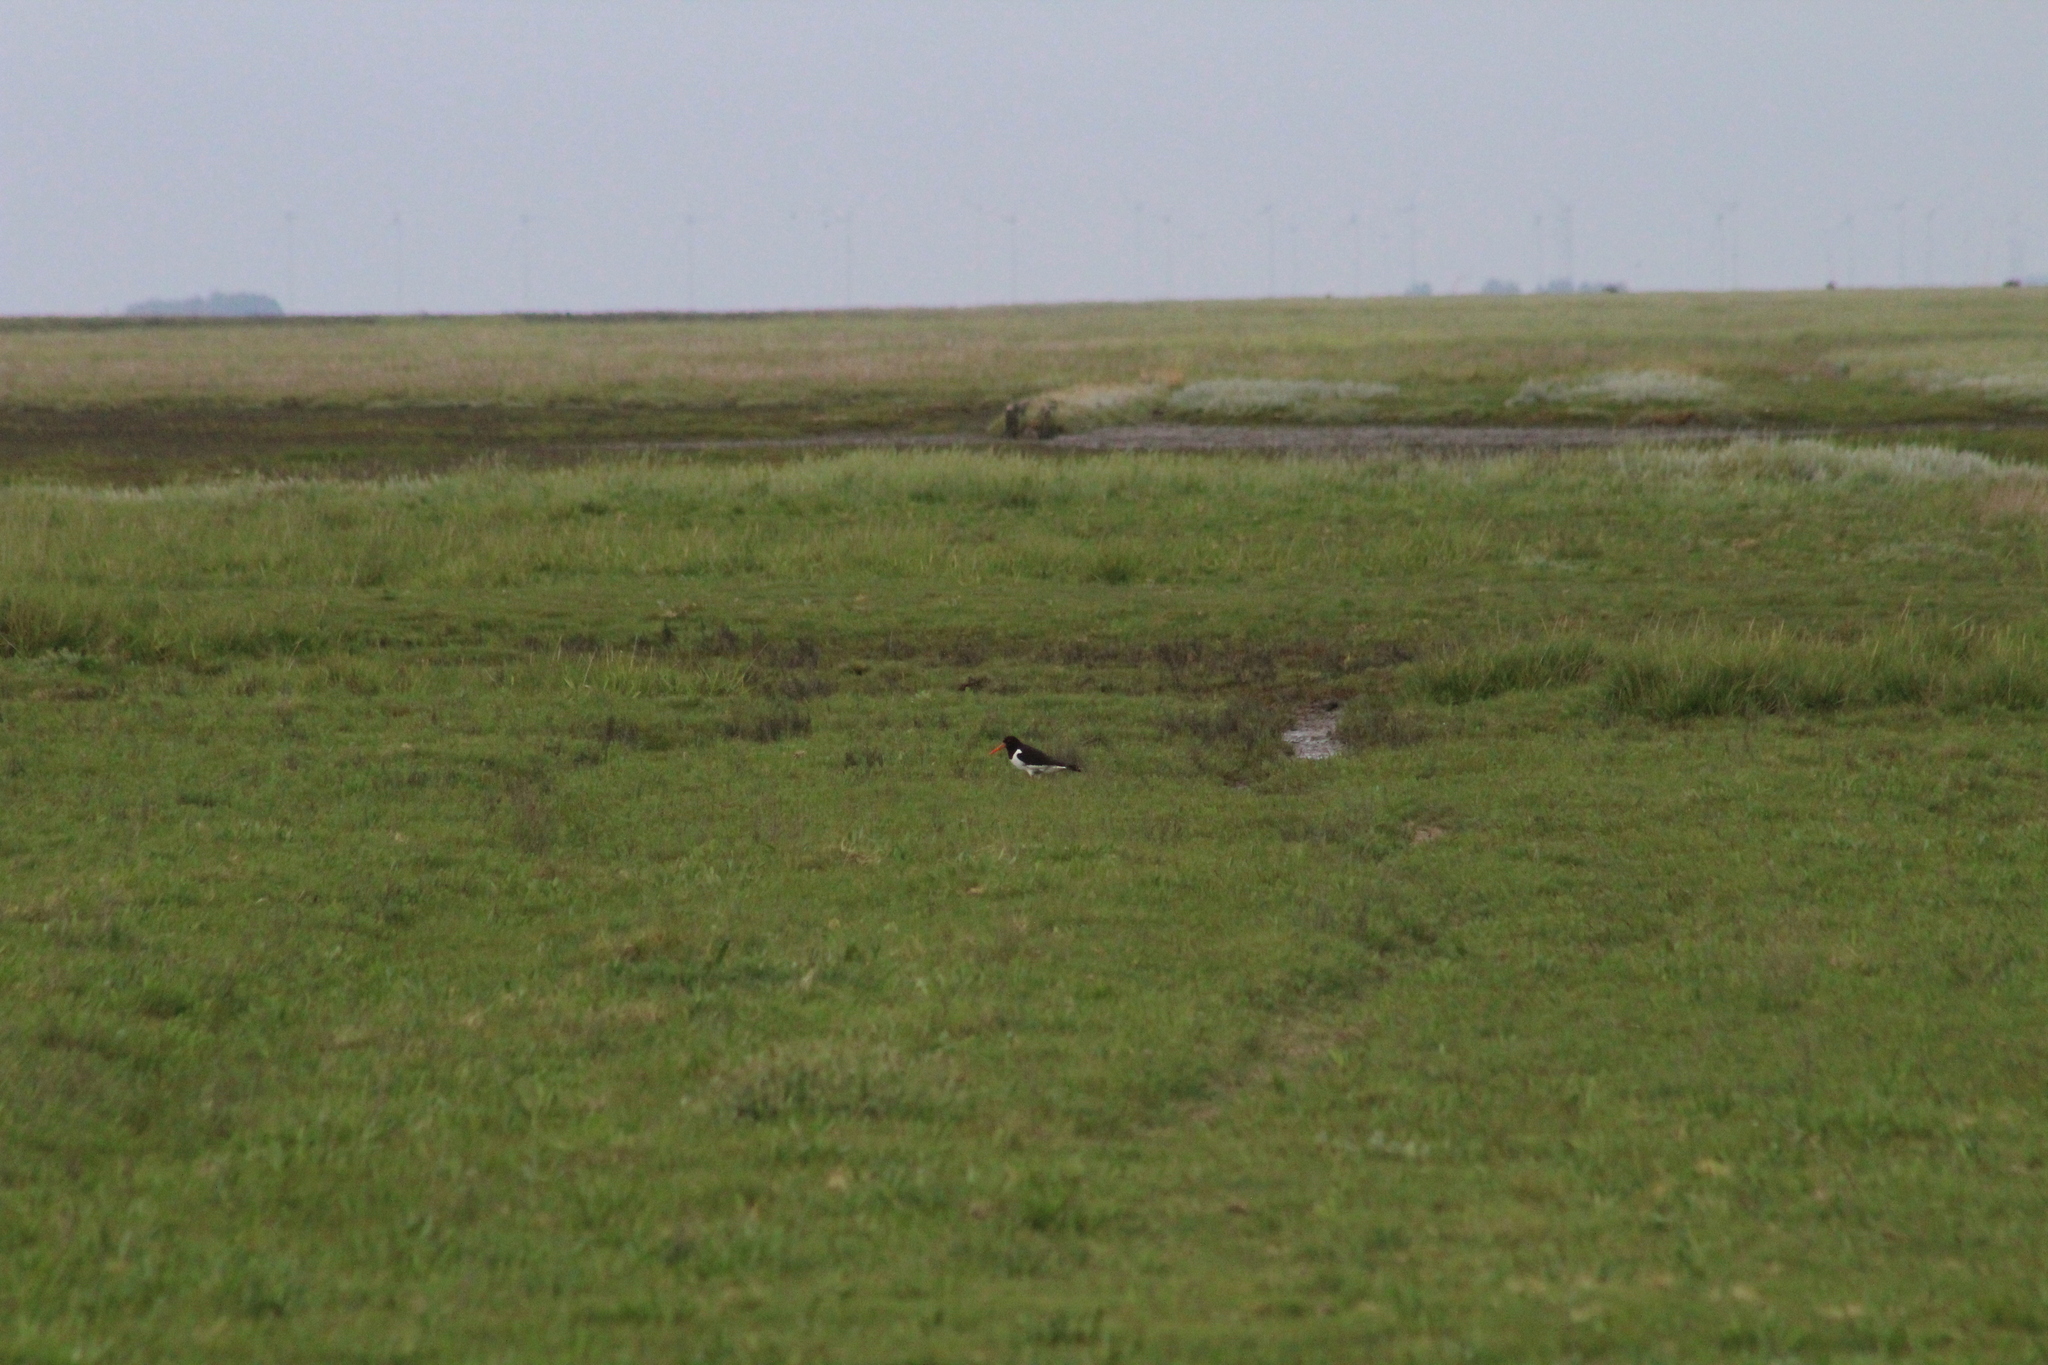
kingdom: Animalia
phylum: Chordata
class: Aves
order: Charadriiformes
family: Haematopodidae
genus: Haematopus
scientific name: Haematopus ostralegus
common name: Eurasian oystercatcher
